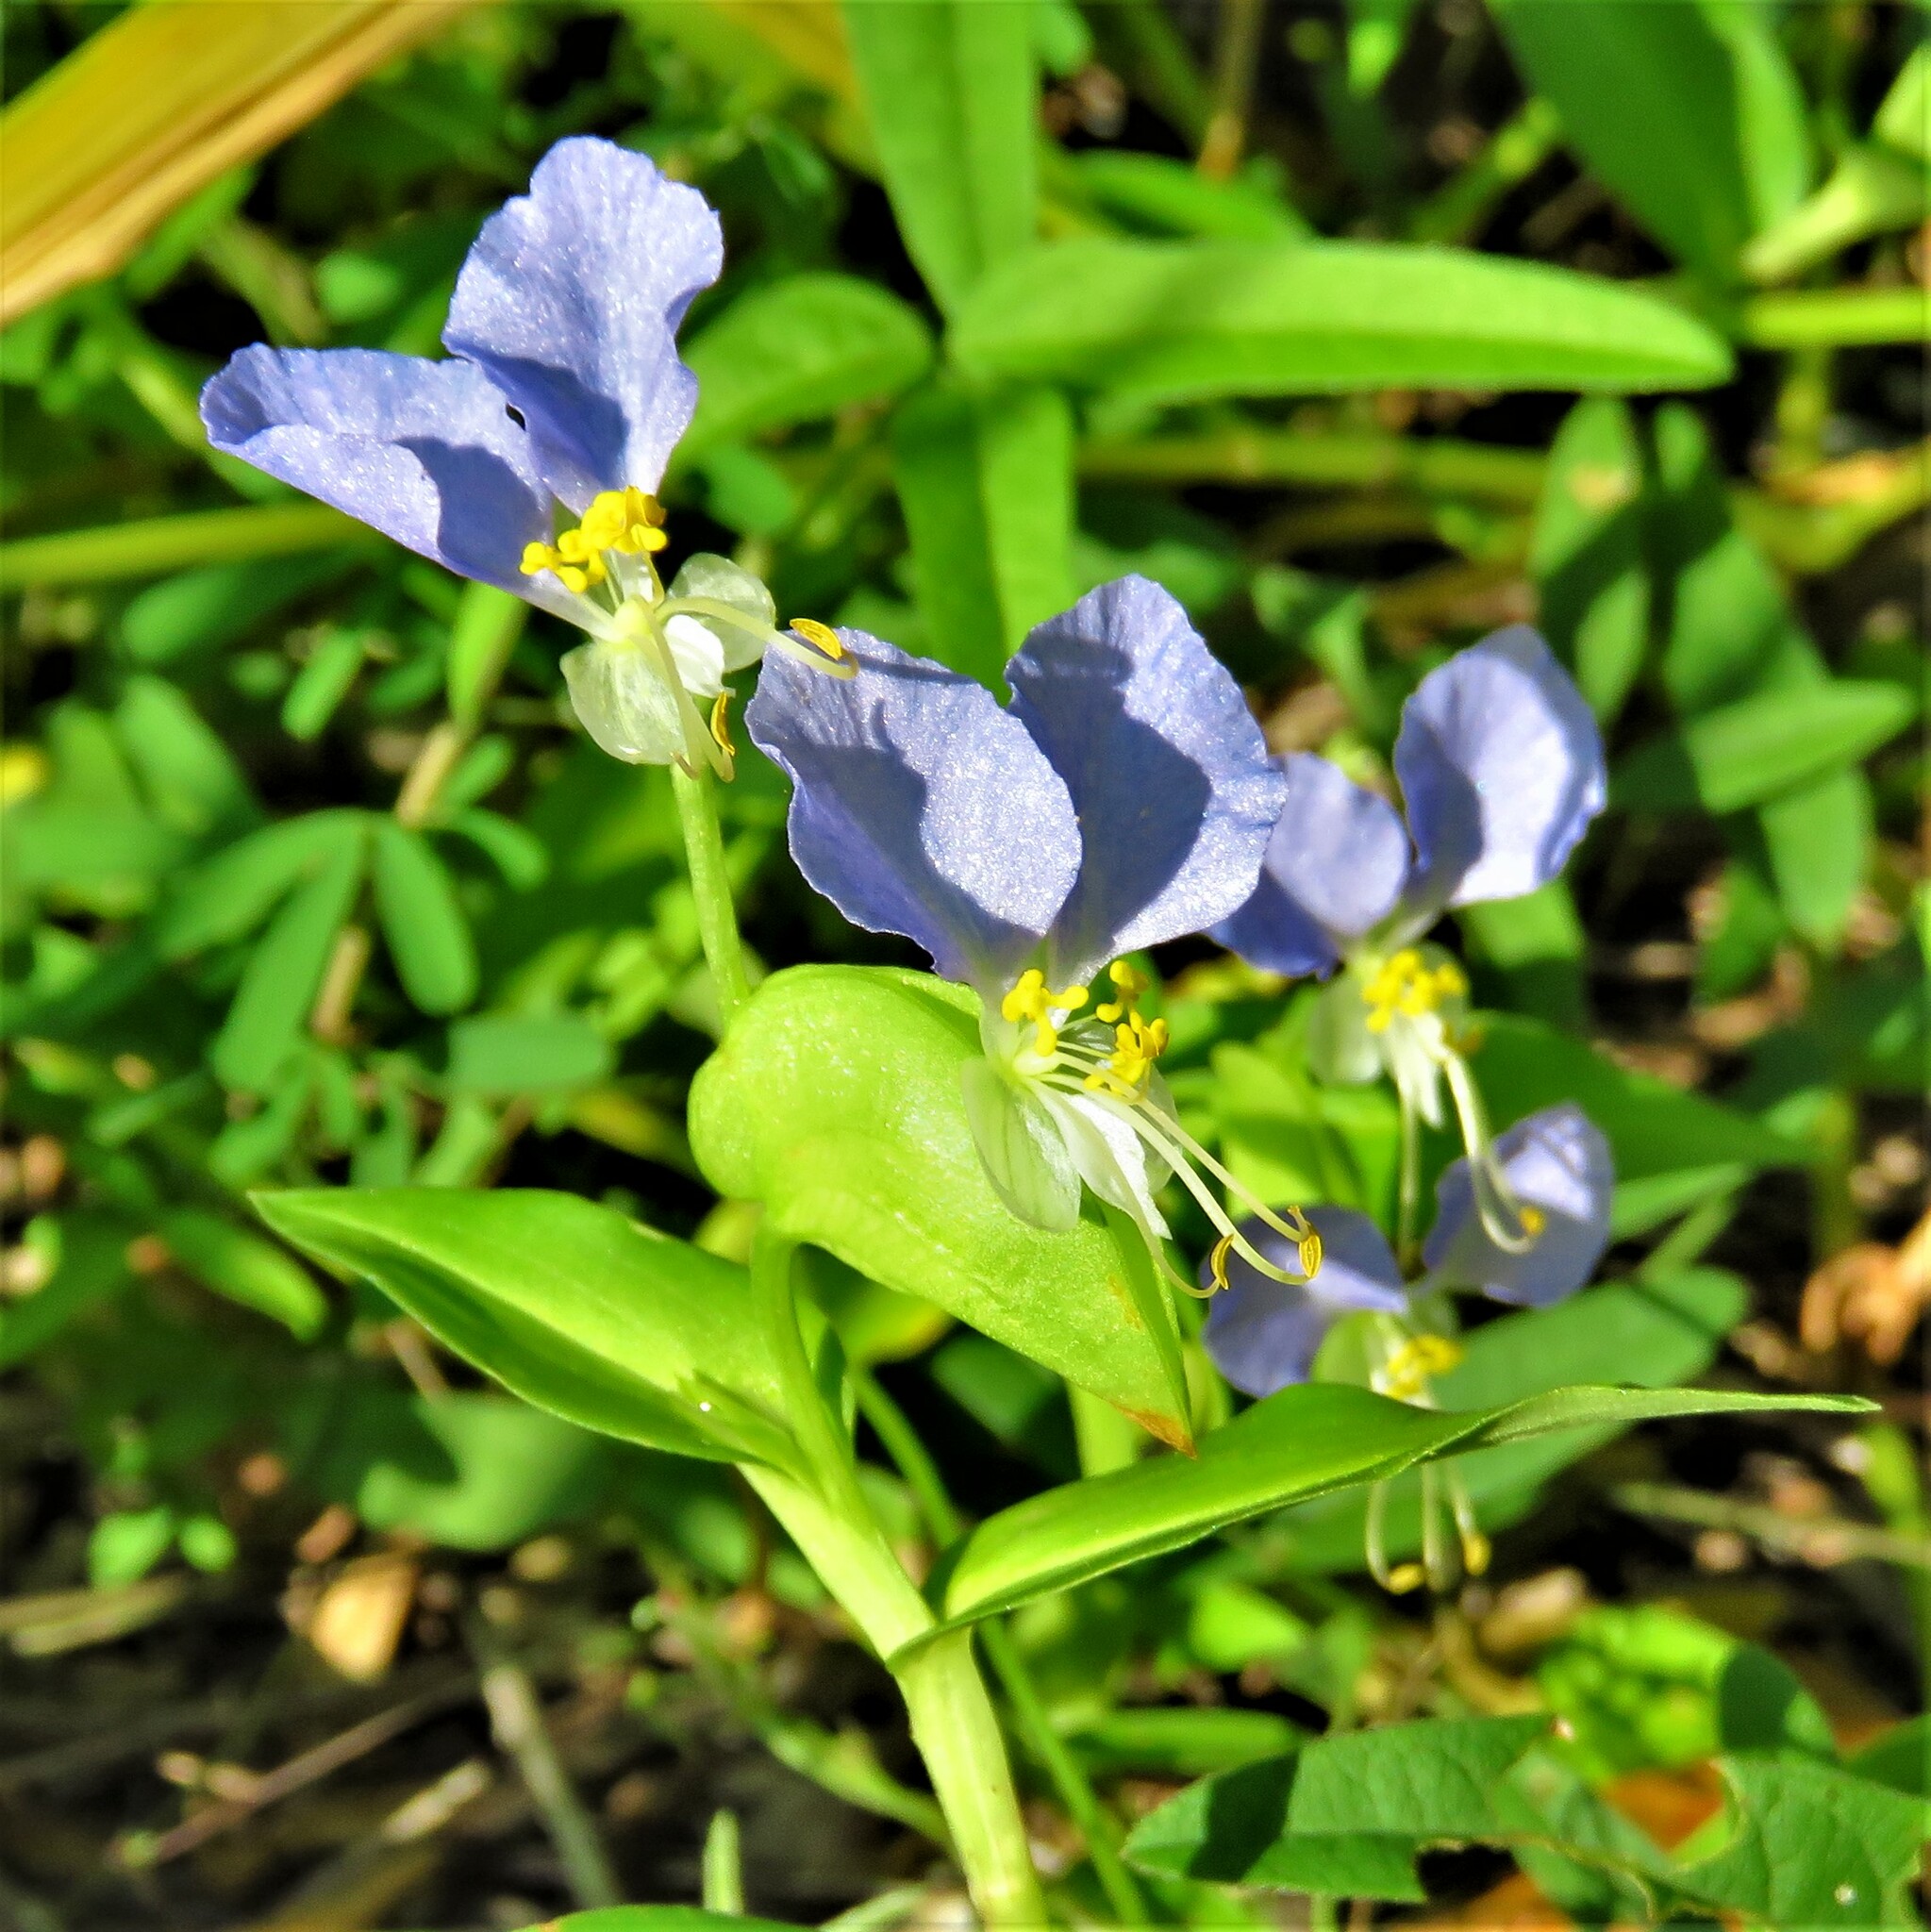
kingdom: Plantae
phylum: Tracheophyta
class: Liliopsida
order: Commelinales
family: Commelinaceae
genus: Commelina
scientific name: Commelina communis
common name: Asiatic dayflower
